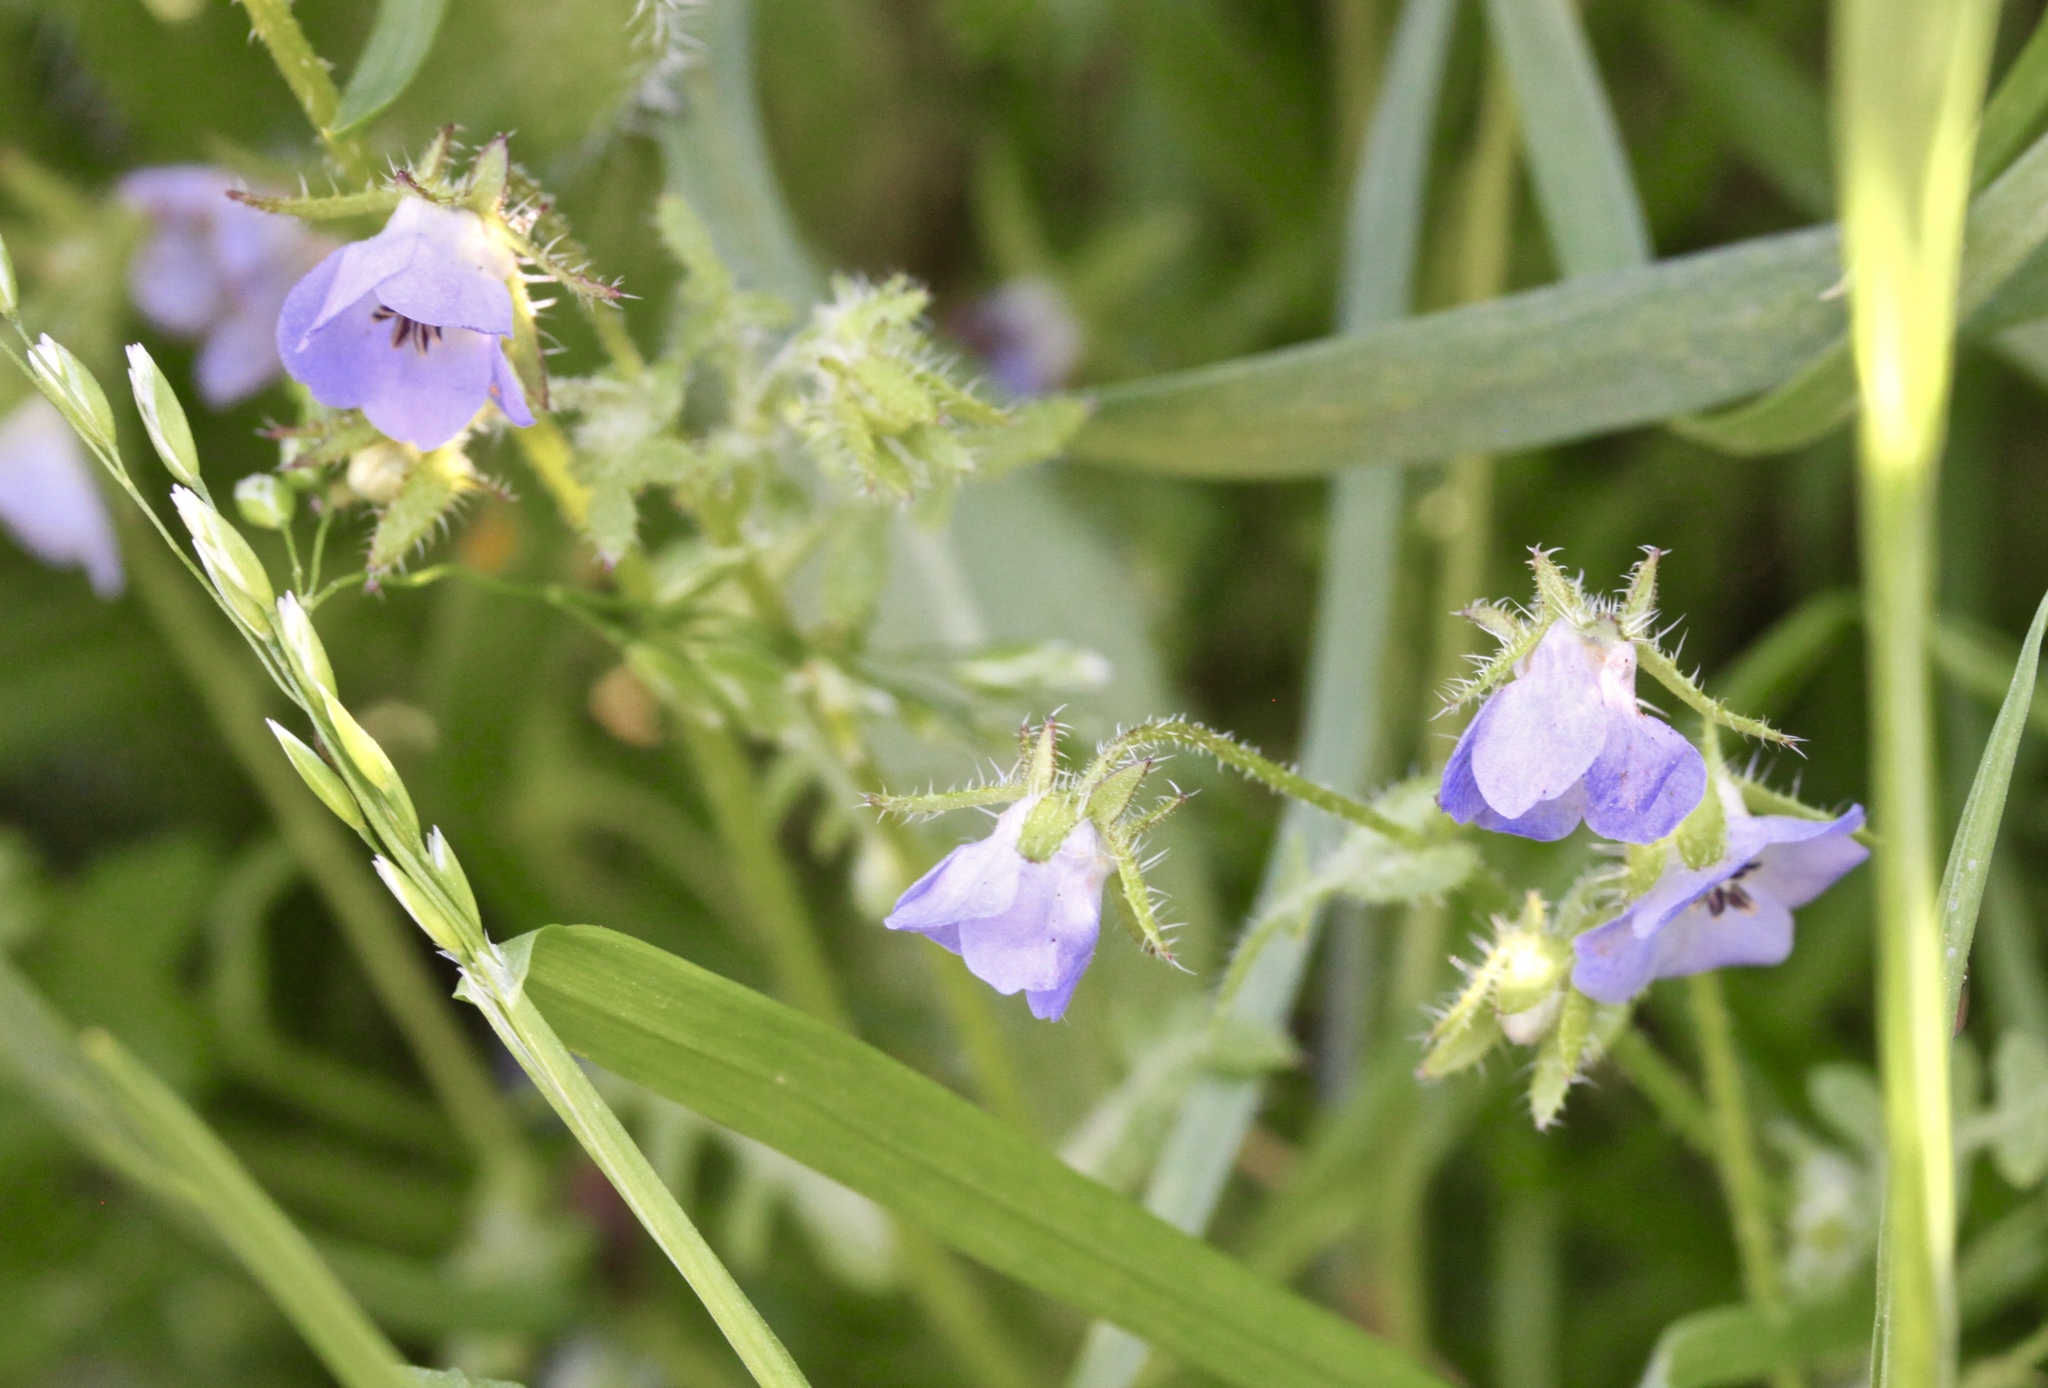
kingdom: Plantae
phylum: Tracheophyta
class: Magnoliopsida
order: Boraginales
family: Hydrophyllaceae
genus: Pholistoma
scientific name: Pholistoma auritum
